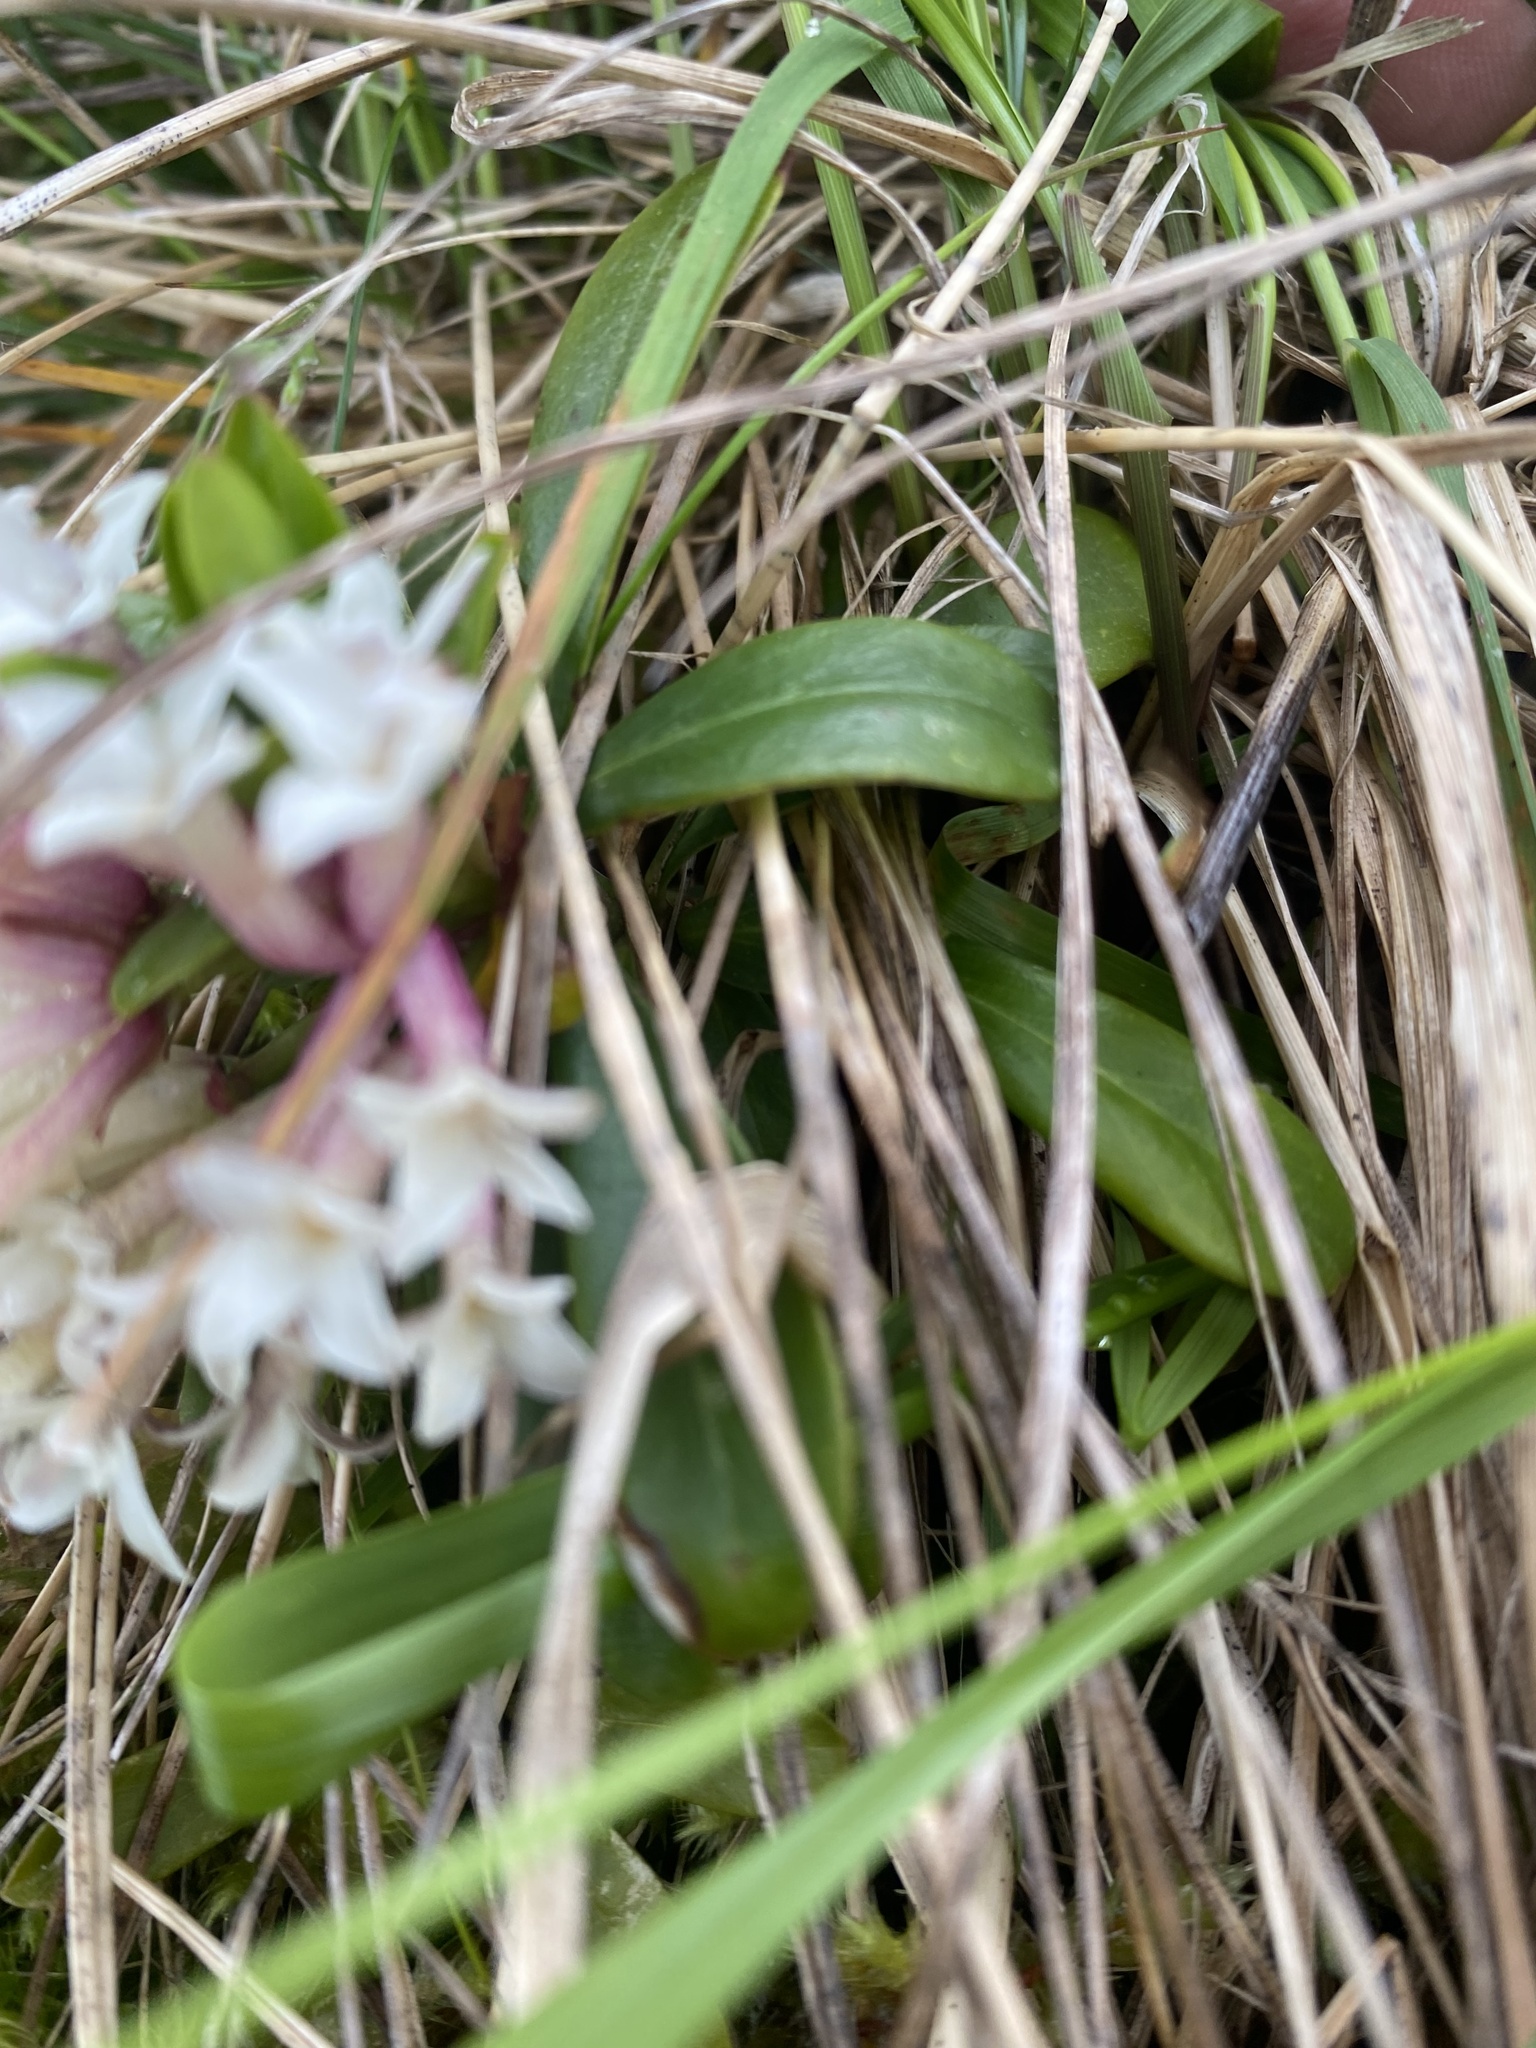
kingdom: Plantae
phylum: Tracheophyta
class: Magnoliopsida
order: Malvales
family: Thymelaeaceae
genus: Daphne
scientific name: Daphne glomerata
